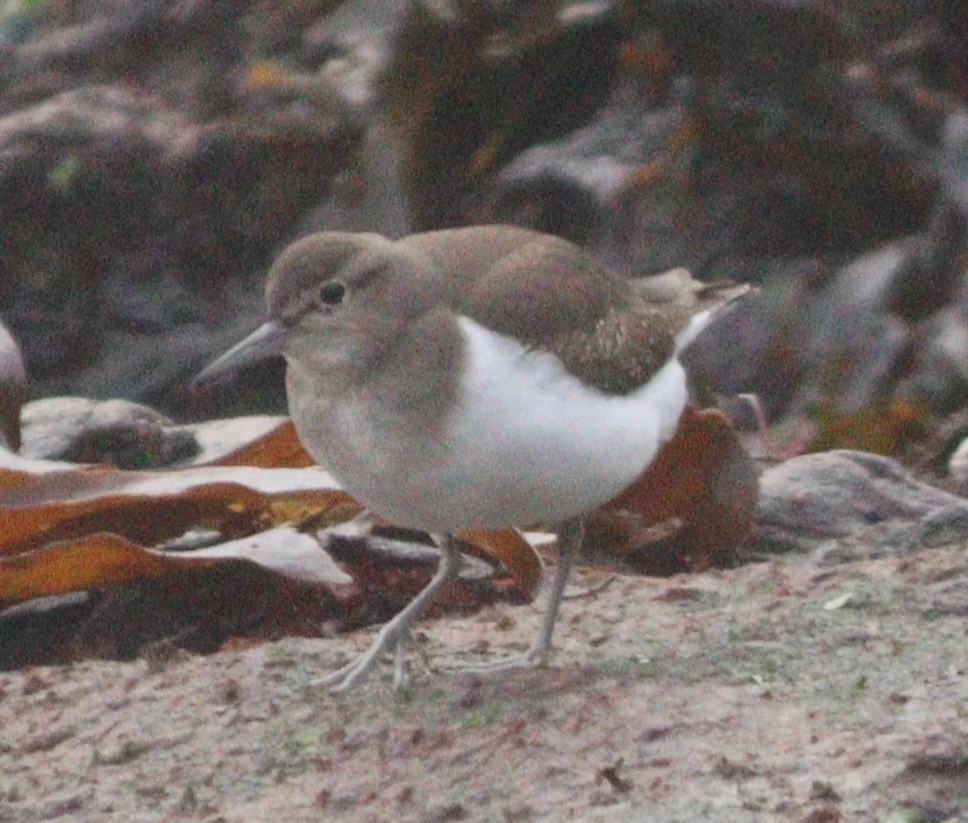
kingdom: Animalia
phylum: Chordata
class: Aves
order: Charadriiformes
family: Scolopacidae
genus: Actitis
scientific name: Actitis hypoleucos
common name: Common sandpiper
